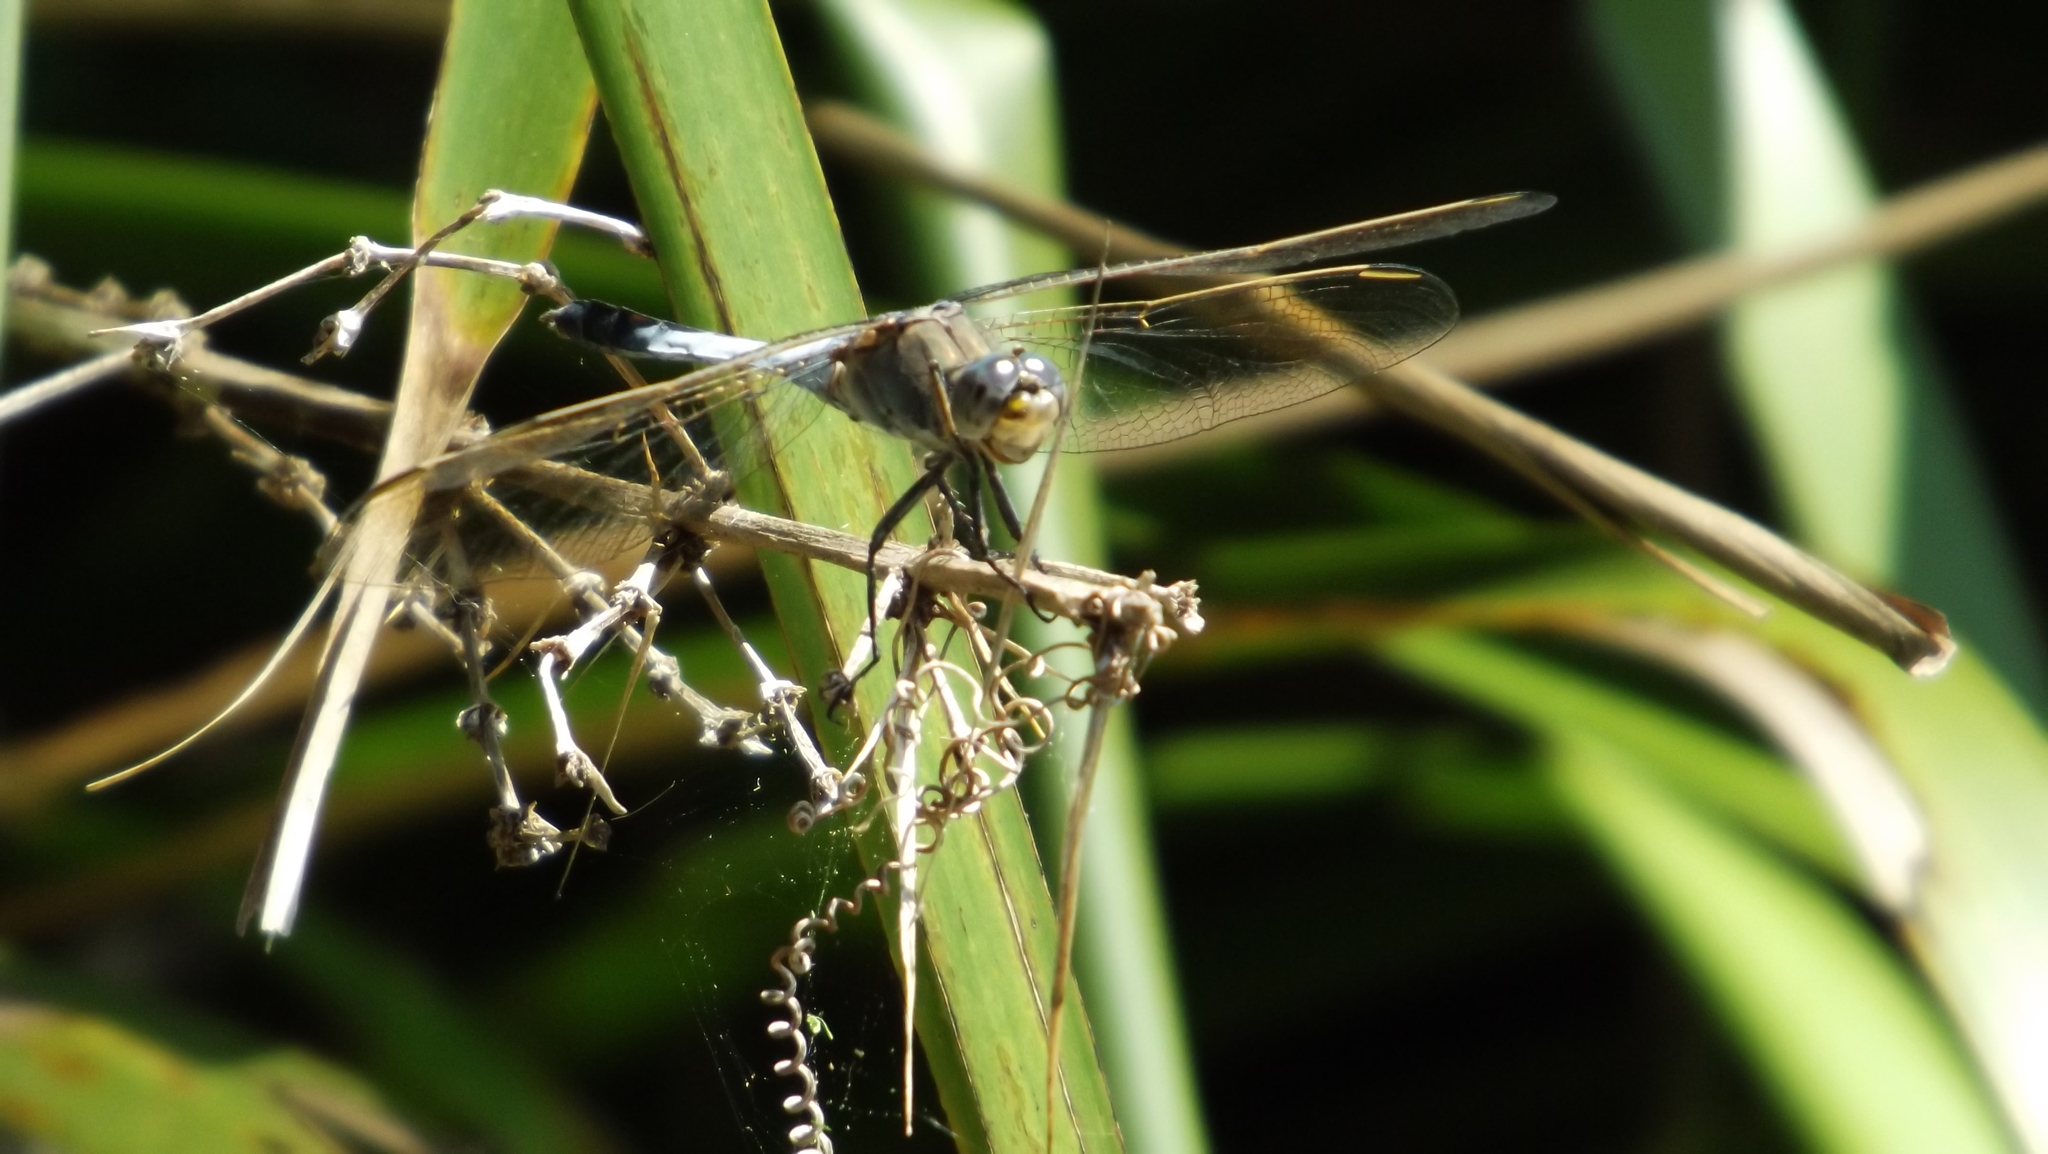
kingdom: Animalia
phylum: Arthropoda
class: Insecta
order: Odonata
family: Libellulidae
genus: Orthetrum
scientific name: Orthetrum caledonicum
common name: Blue skimmer
